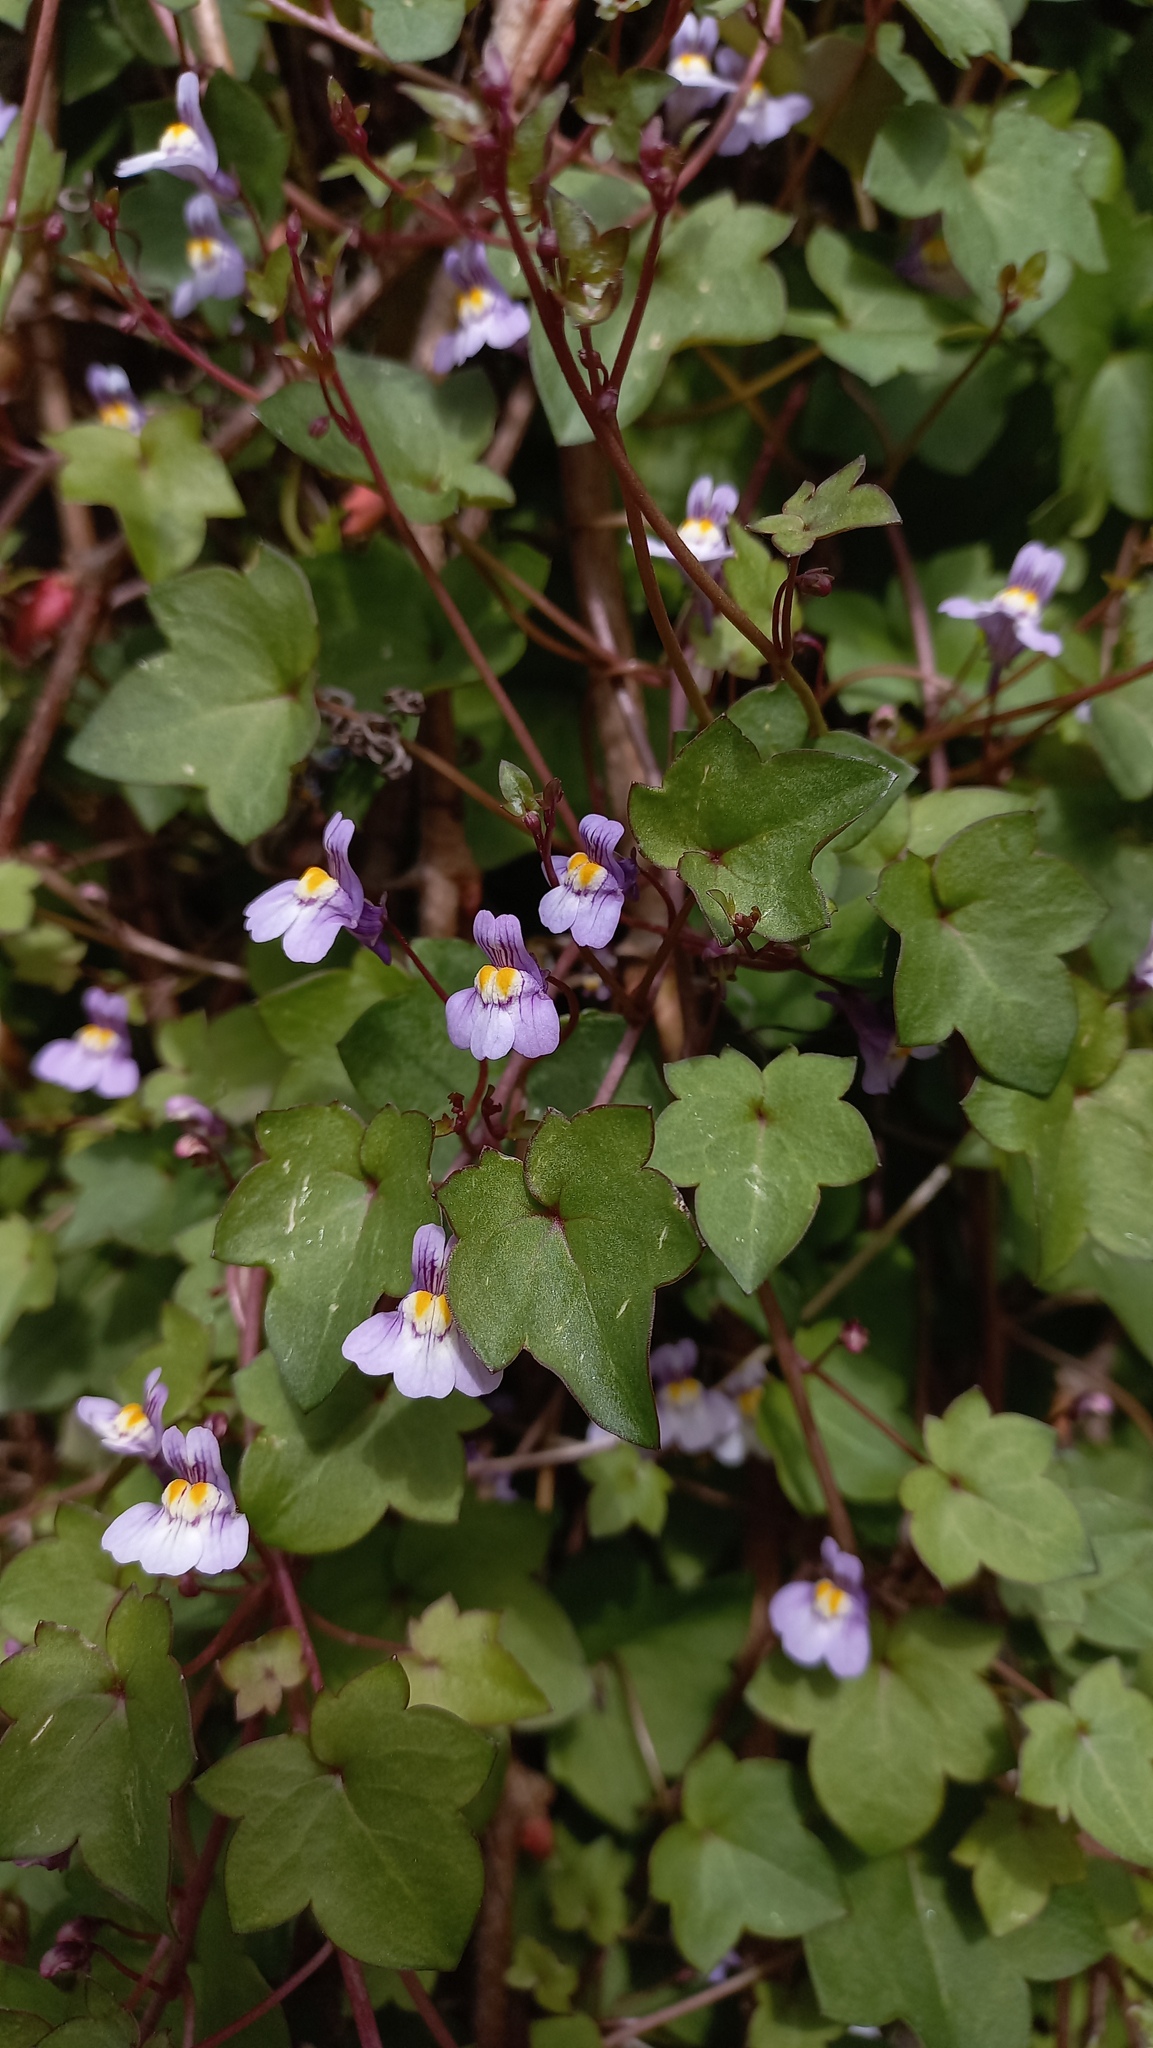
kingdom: Plantae
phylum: Tracheophyta
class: Magnoliopsida
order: Lamiales
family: Plantaginaceae
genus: Cymbalaria
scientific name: Cymbalaria muralis
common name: Ivy-leaved toadflax
